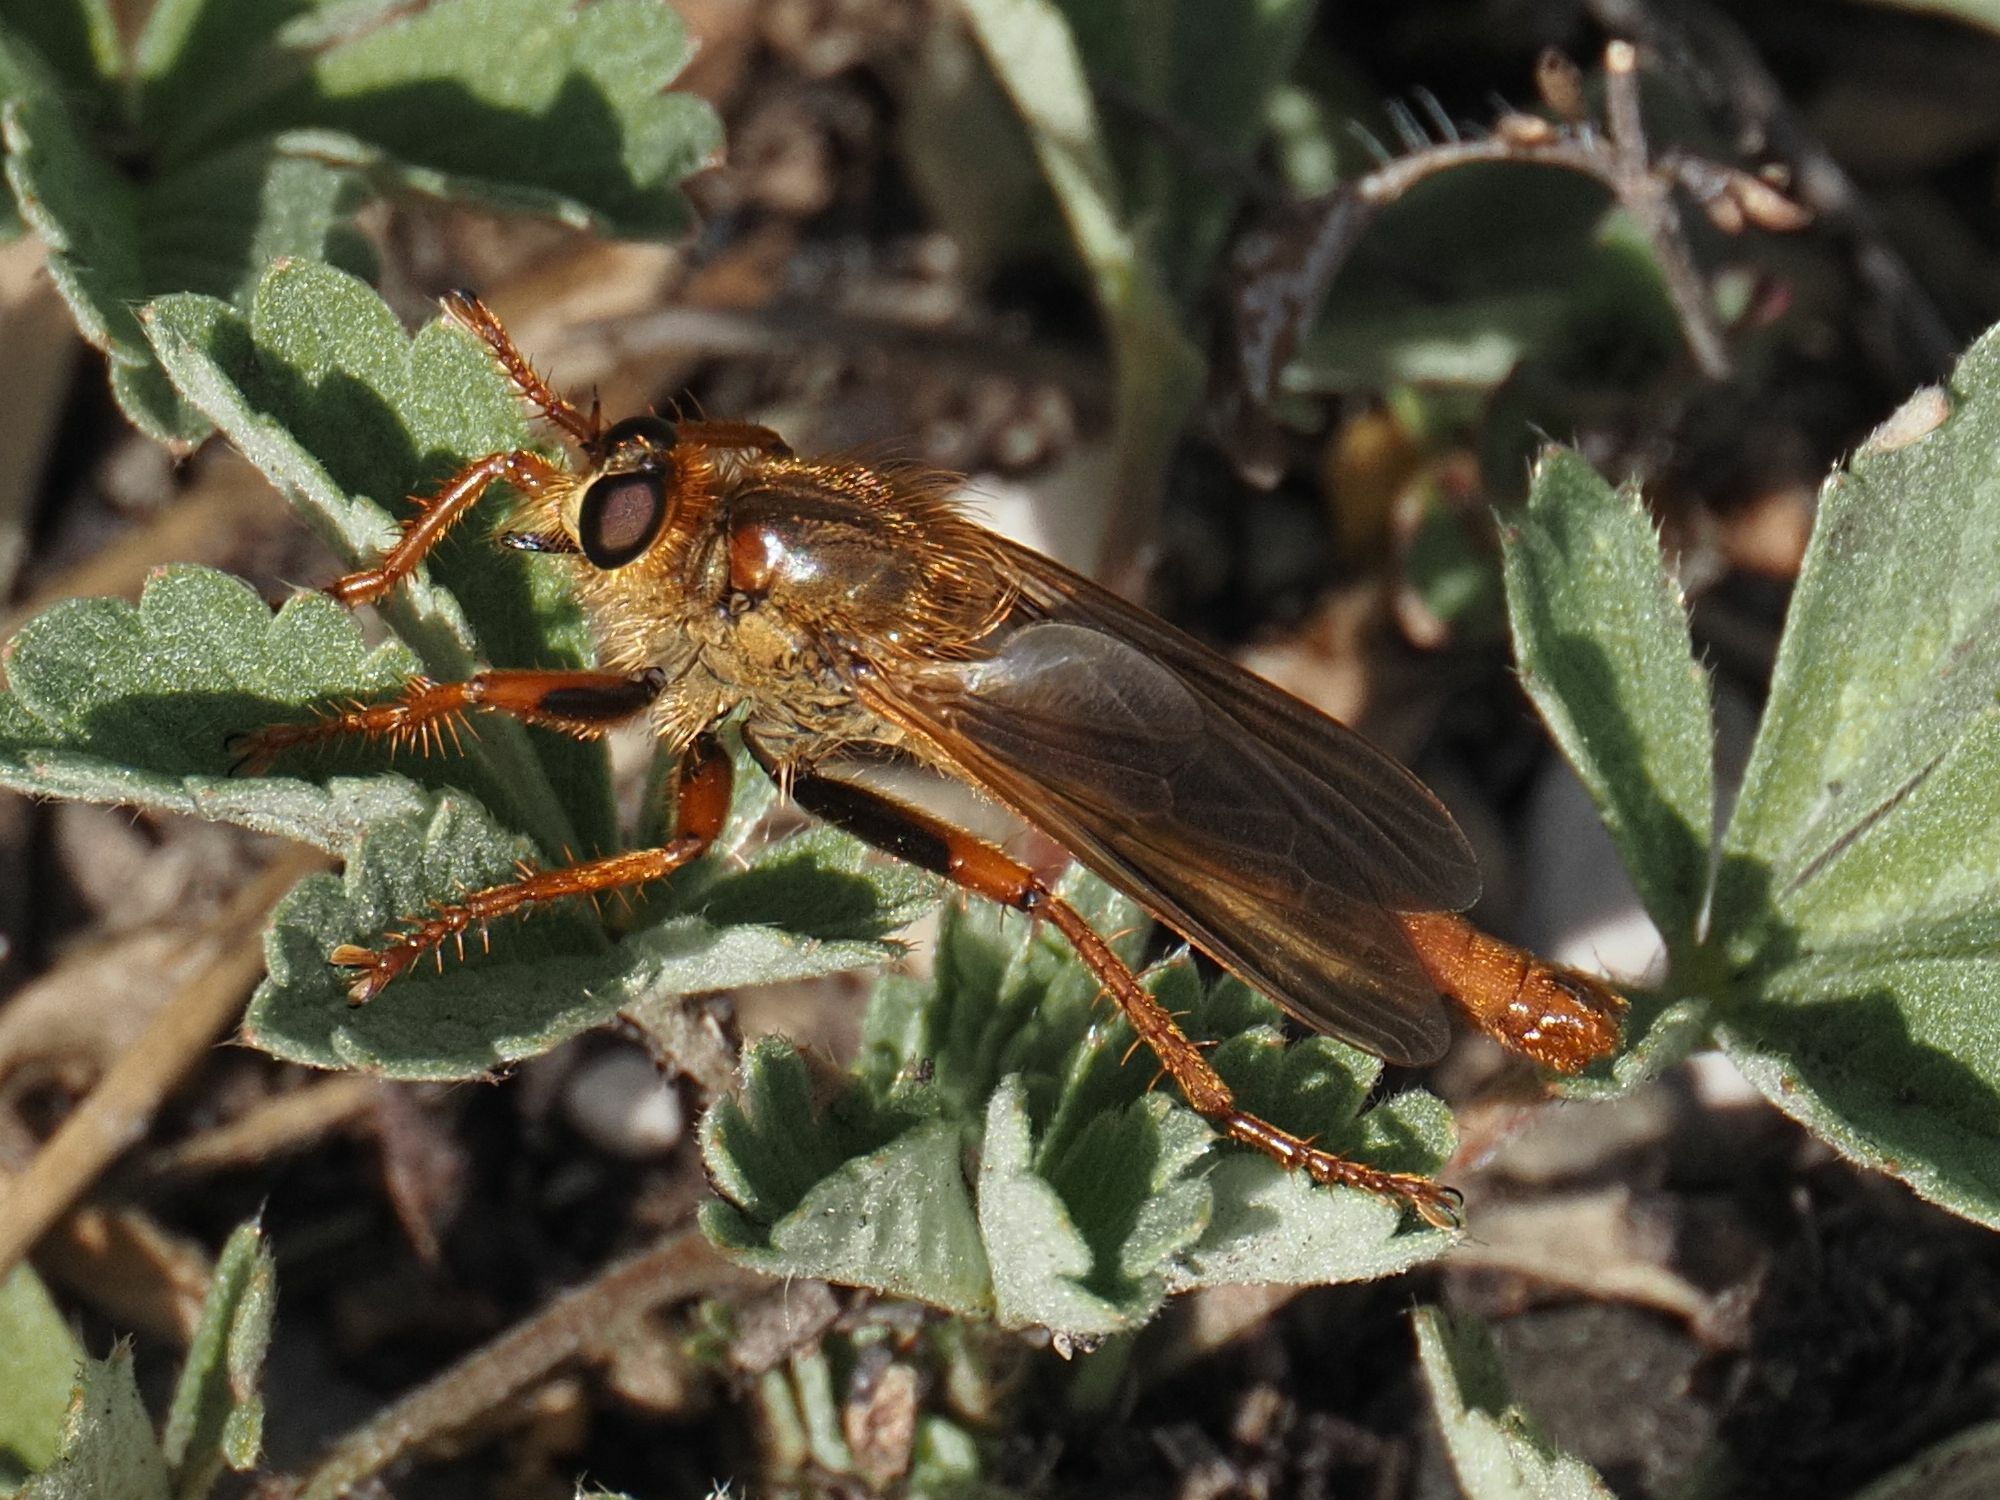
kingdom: Animalia
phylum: Arthropoda
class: Insecta
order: Diptera
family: Asilidae
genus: Stenopogon
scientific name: Stenopogon sabaudus
